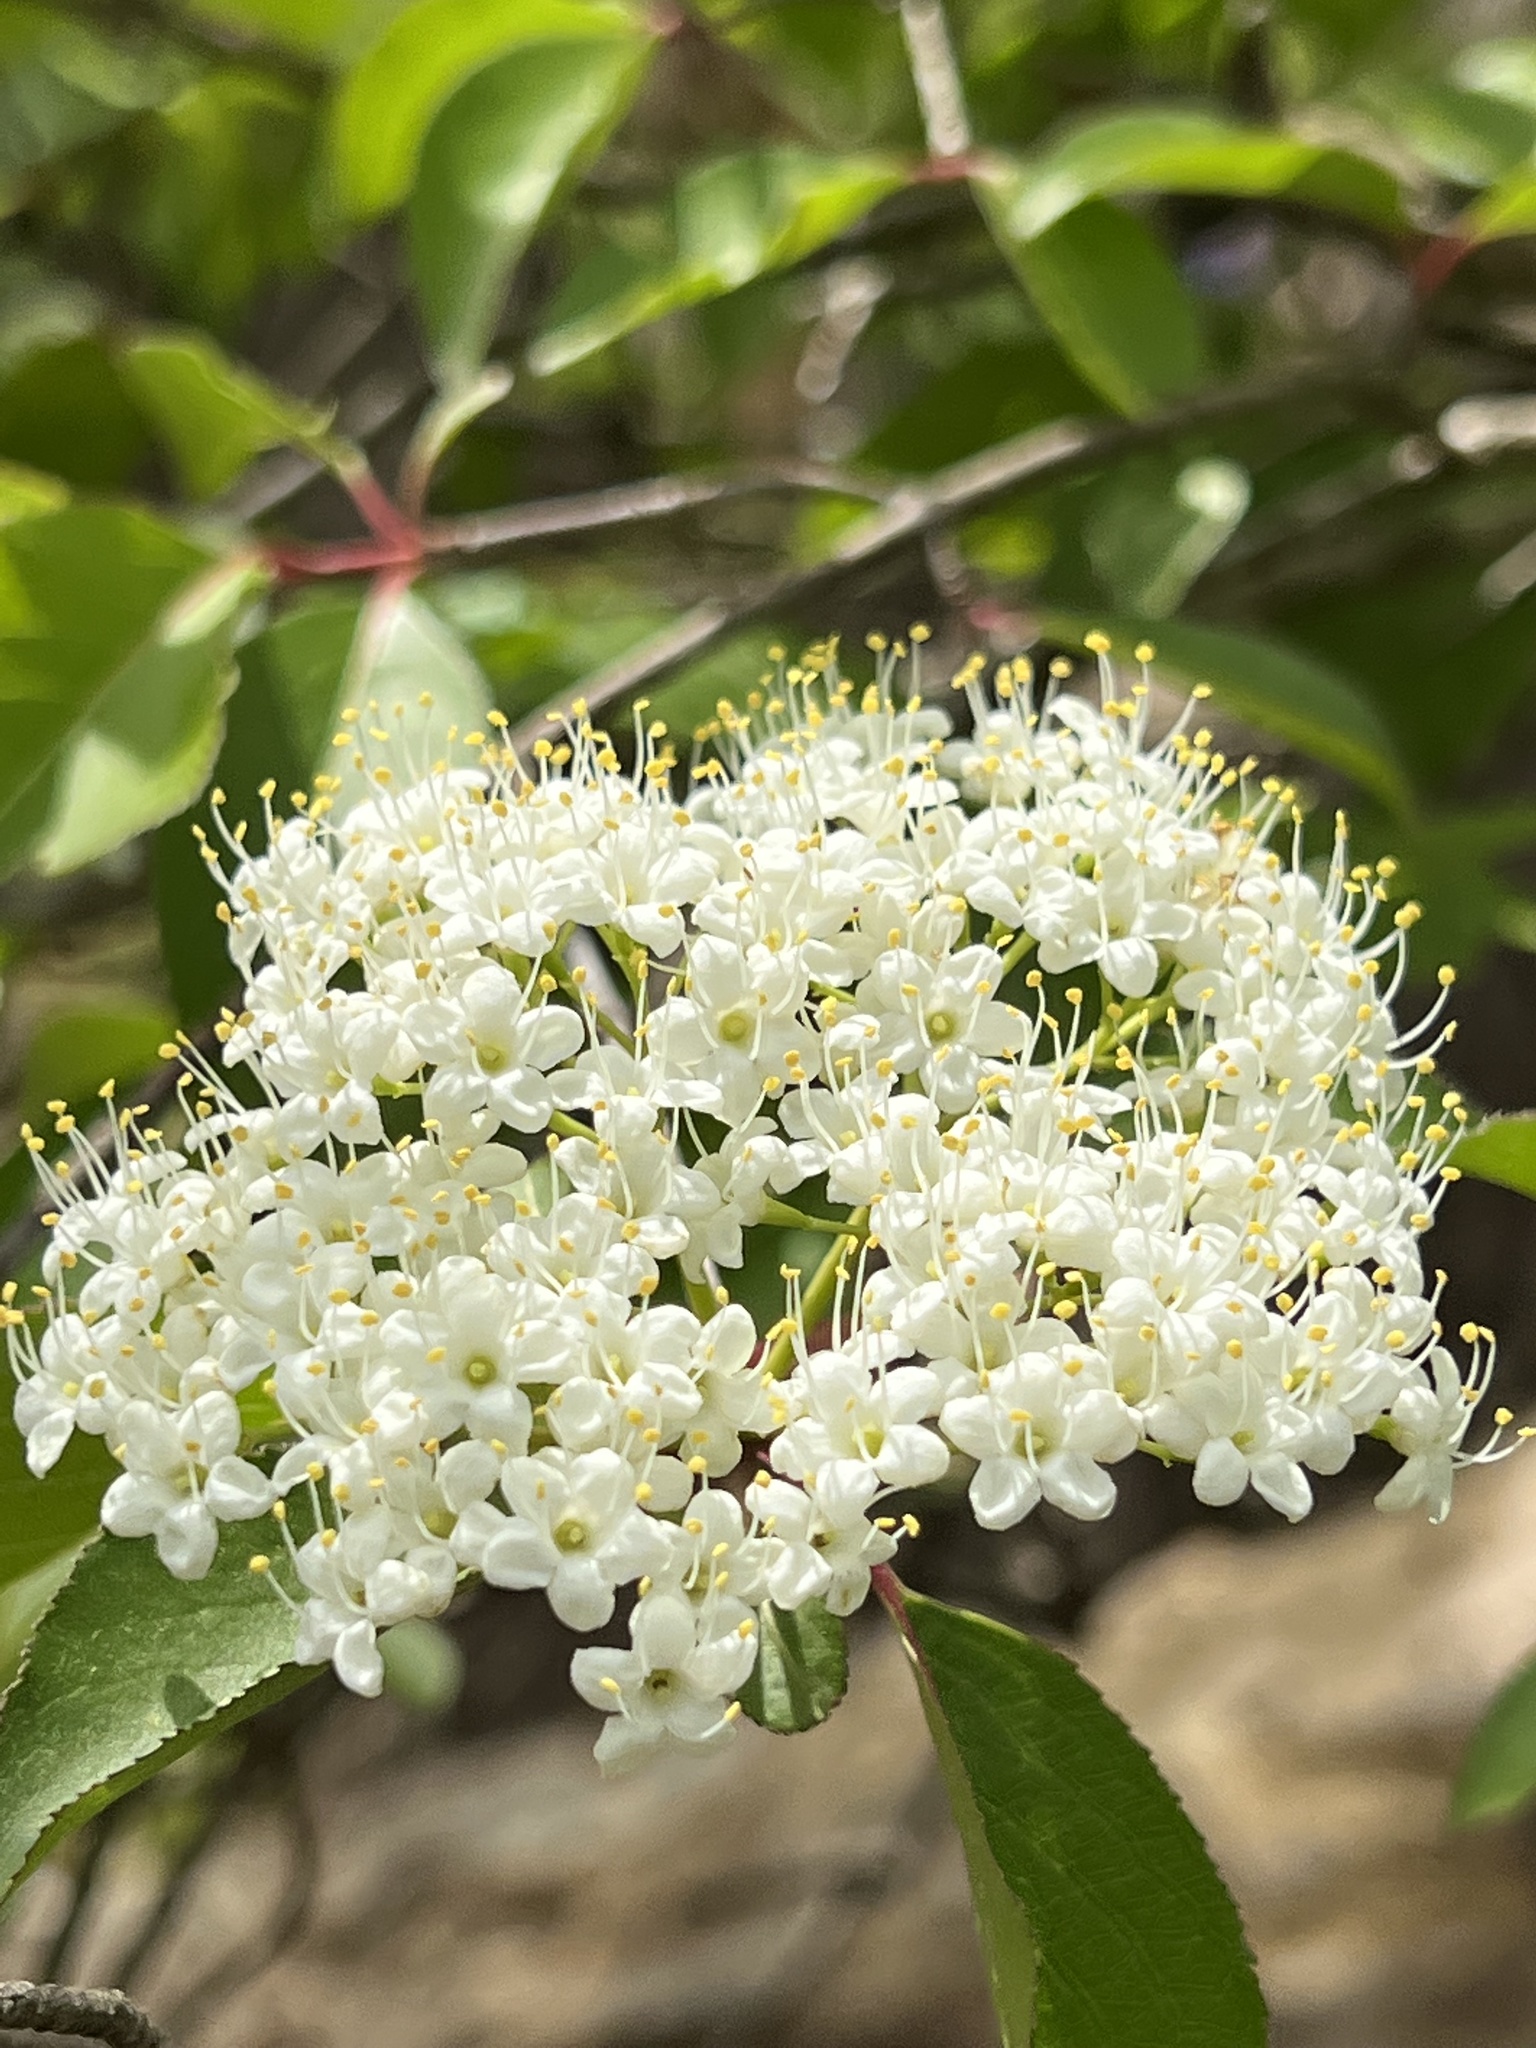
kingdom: Plantae
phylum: Tracheophyta
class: Magnoliopsida
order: Dipsacales
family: Viburnaceae
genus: Viburnum
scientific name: Viburnum prunifolium
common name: Black haw
